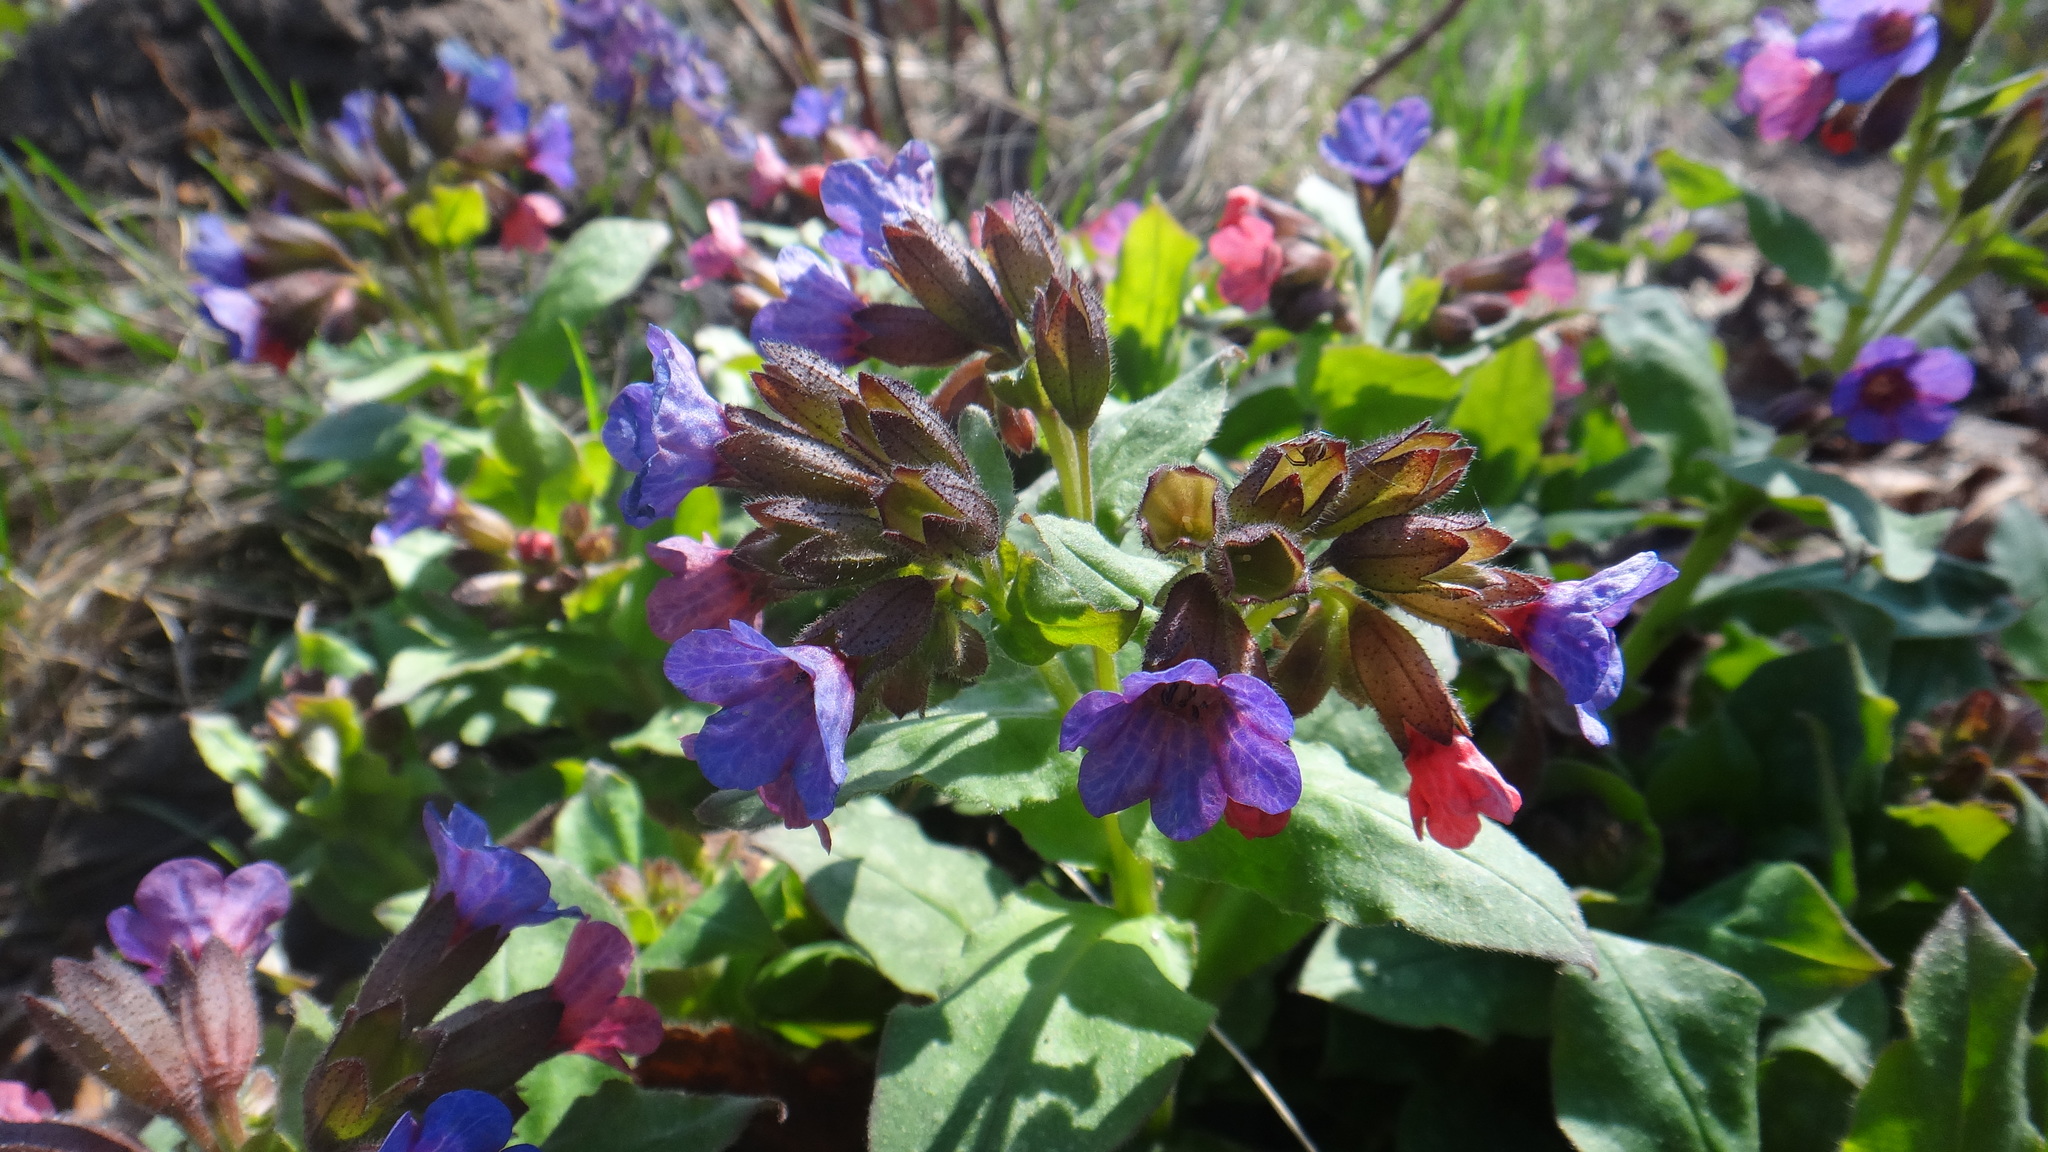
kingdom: Plantae
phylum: Tracheophyta
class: Magnoliopsida
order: Boraginales
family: Boraginaceae
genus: Pulmonaria
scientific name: Pulmonaria obscura
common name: Suffolk lungwort
